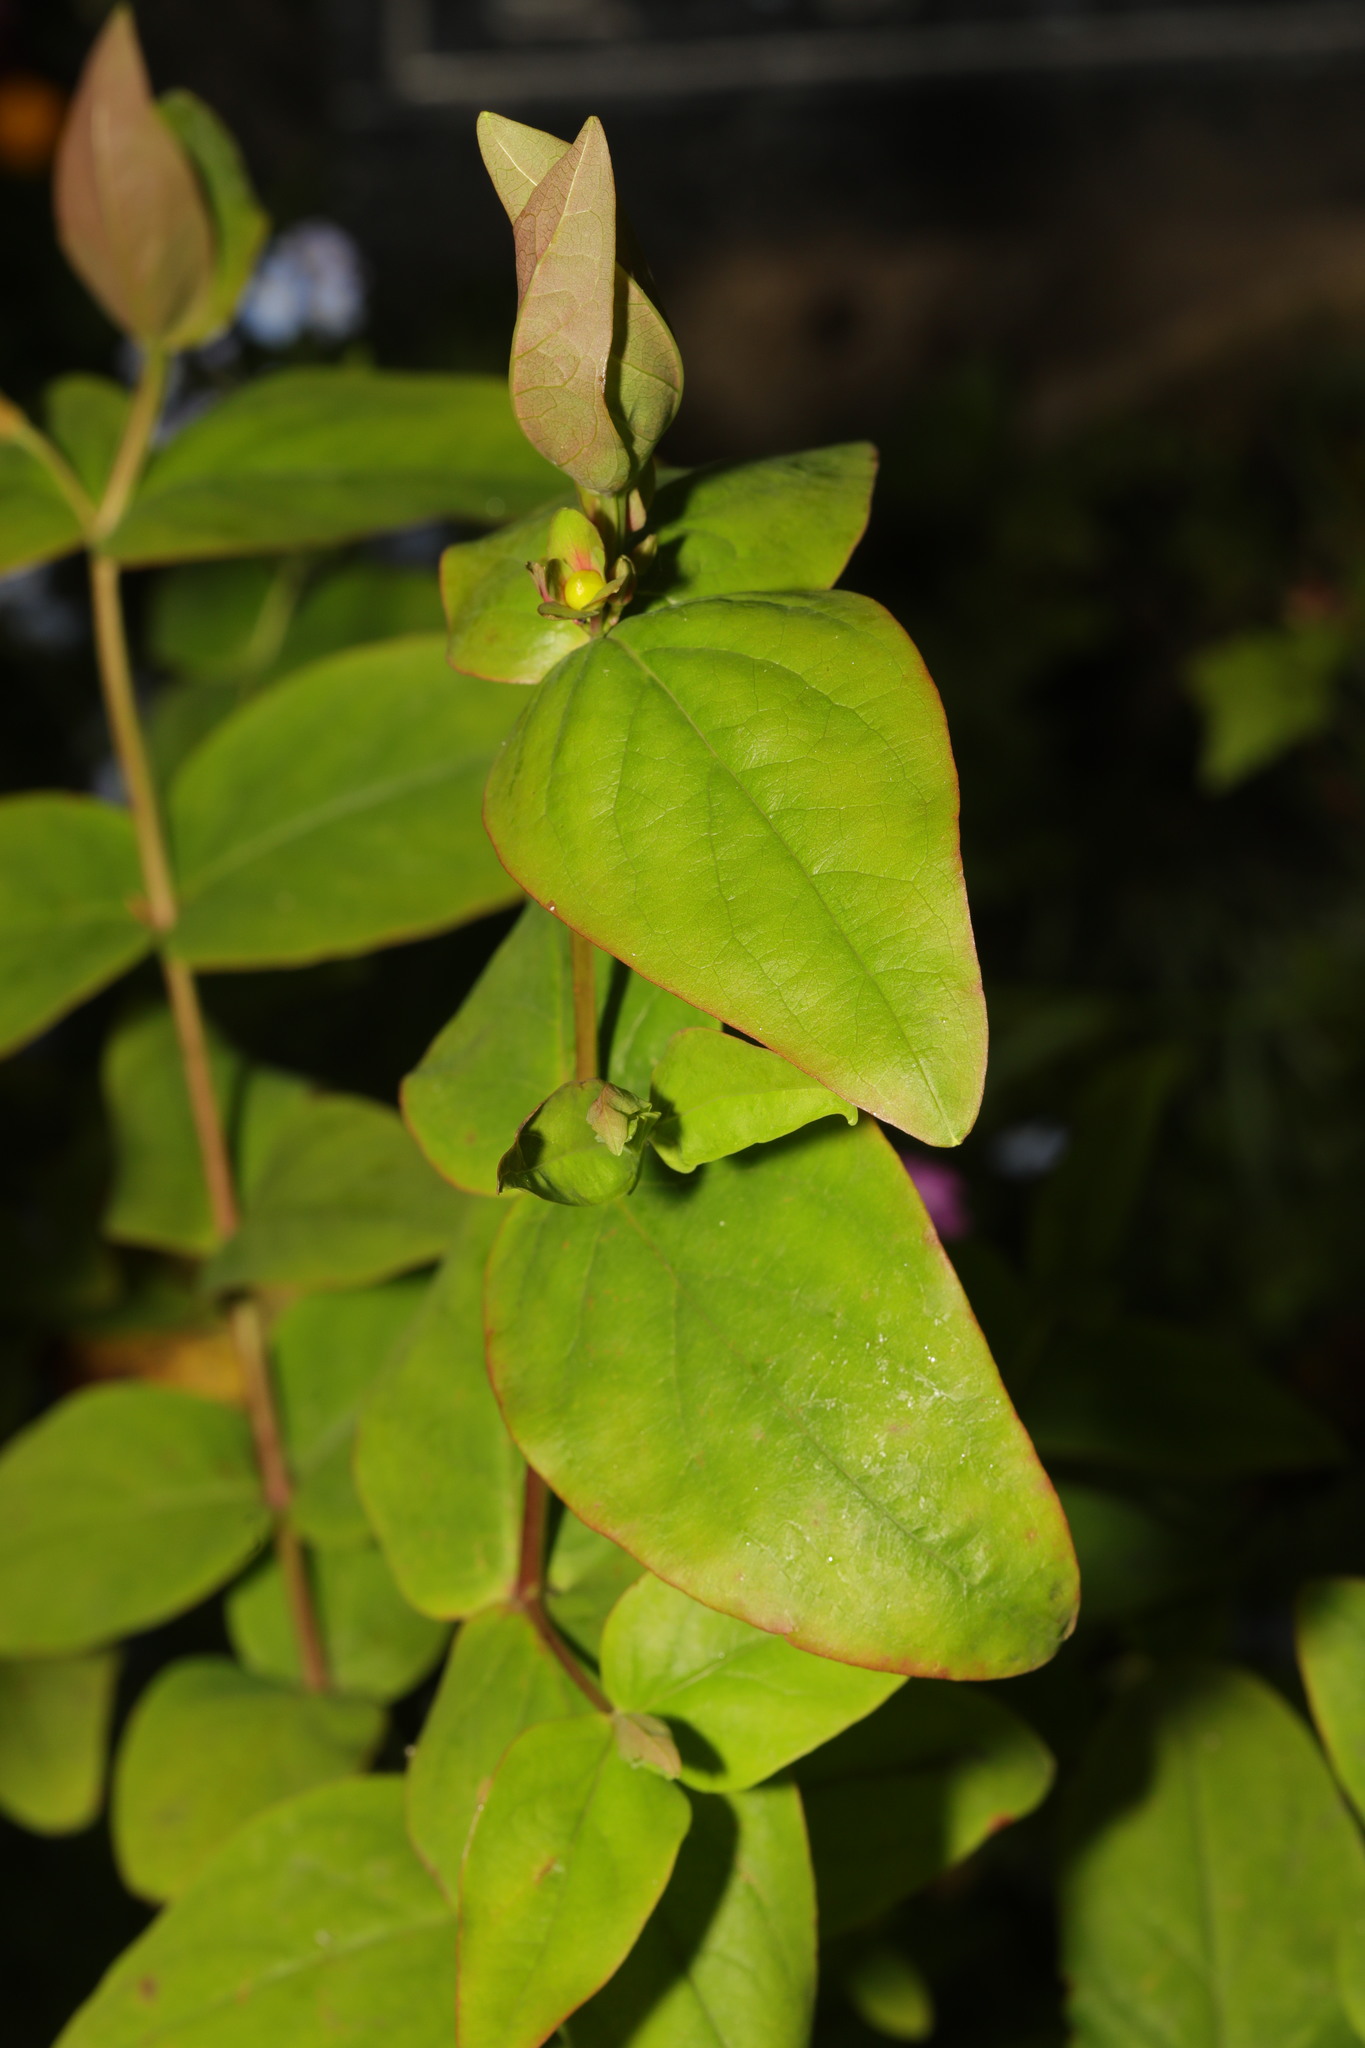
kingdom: Plantae
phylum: Tracheophyta
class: Magnoliopsida
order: Malpighiales
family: Hypericaceae
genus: Hypericum
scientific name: Hypericum androsaemum
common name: Sweet-amber
